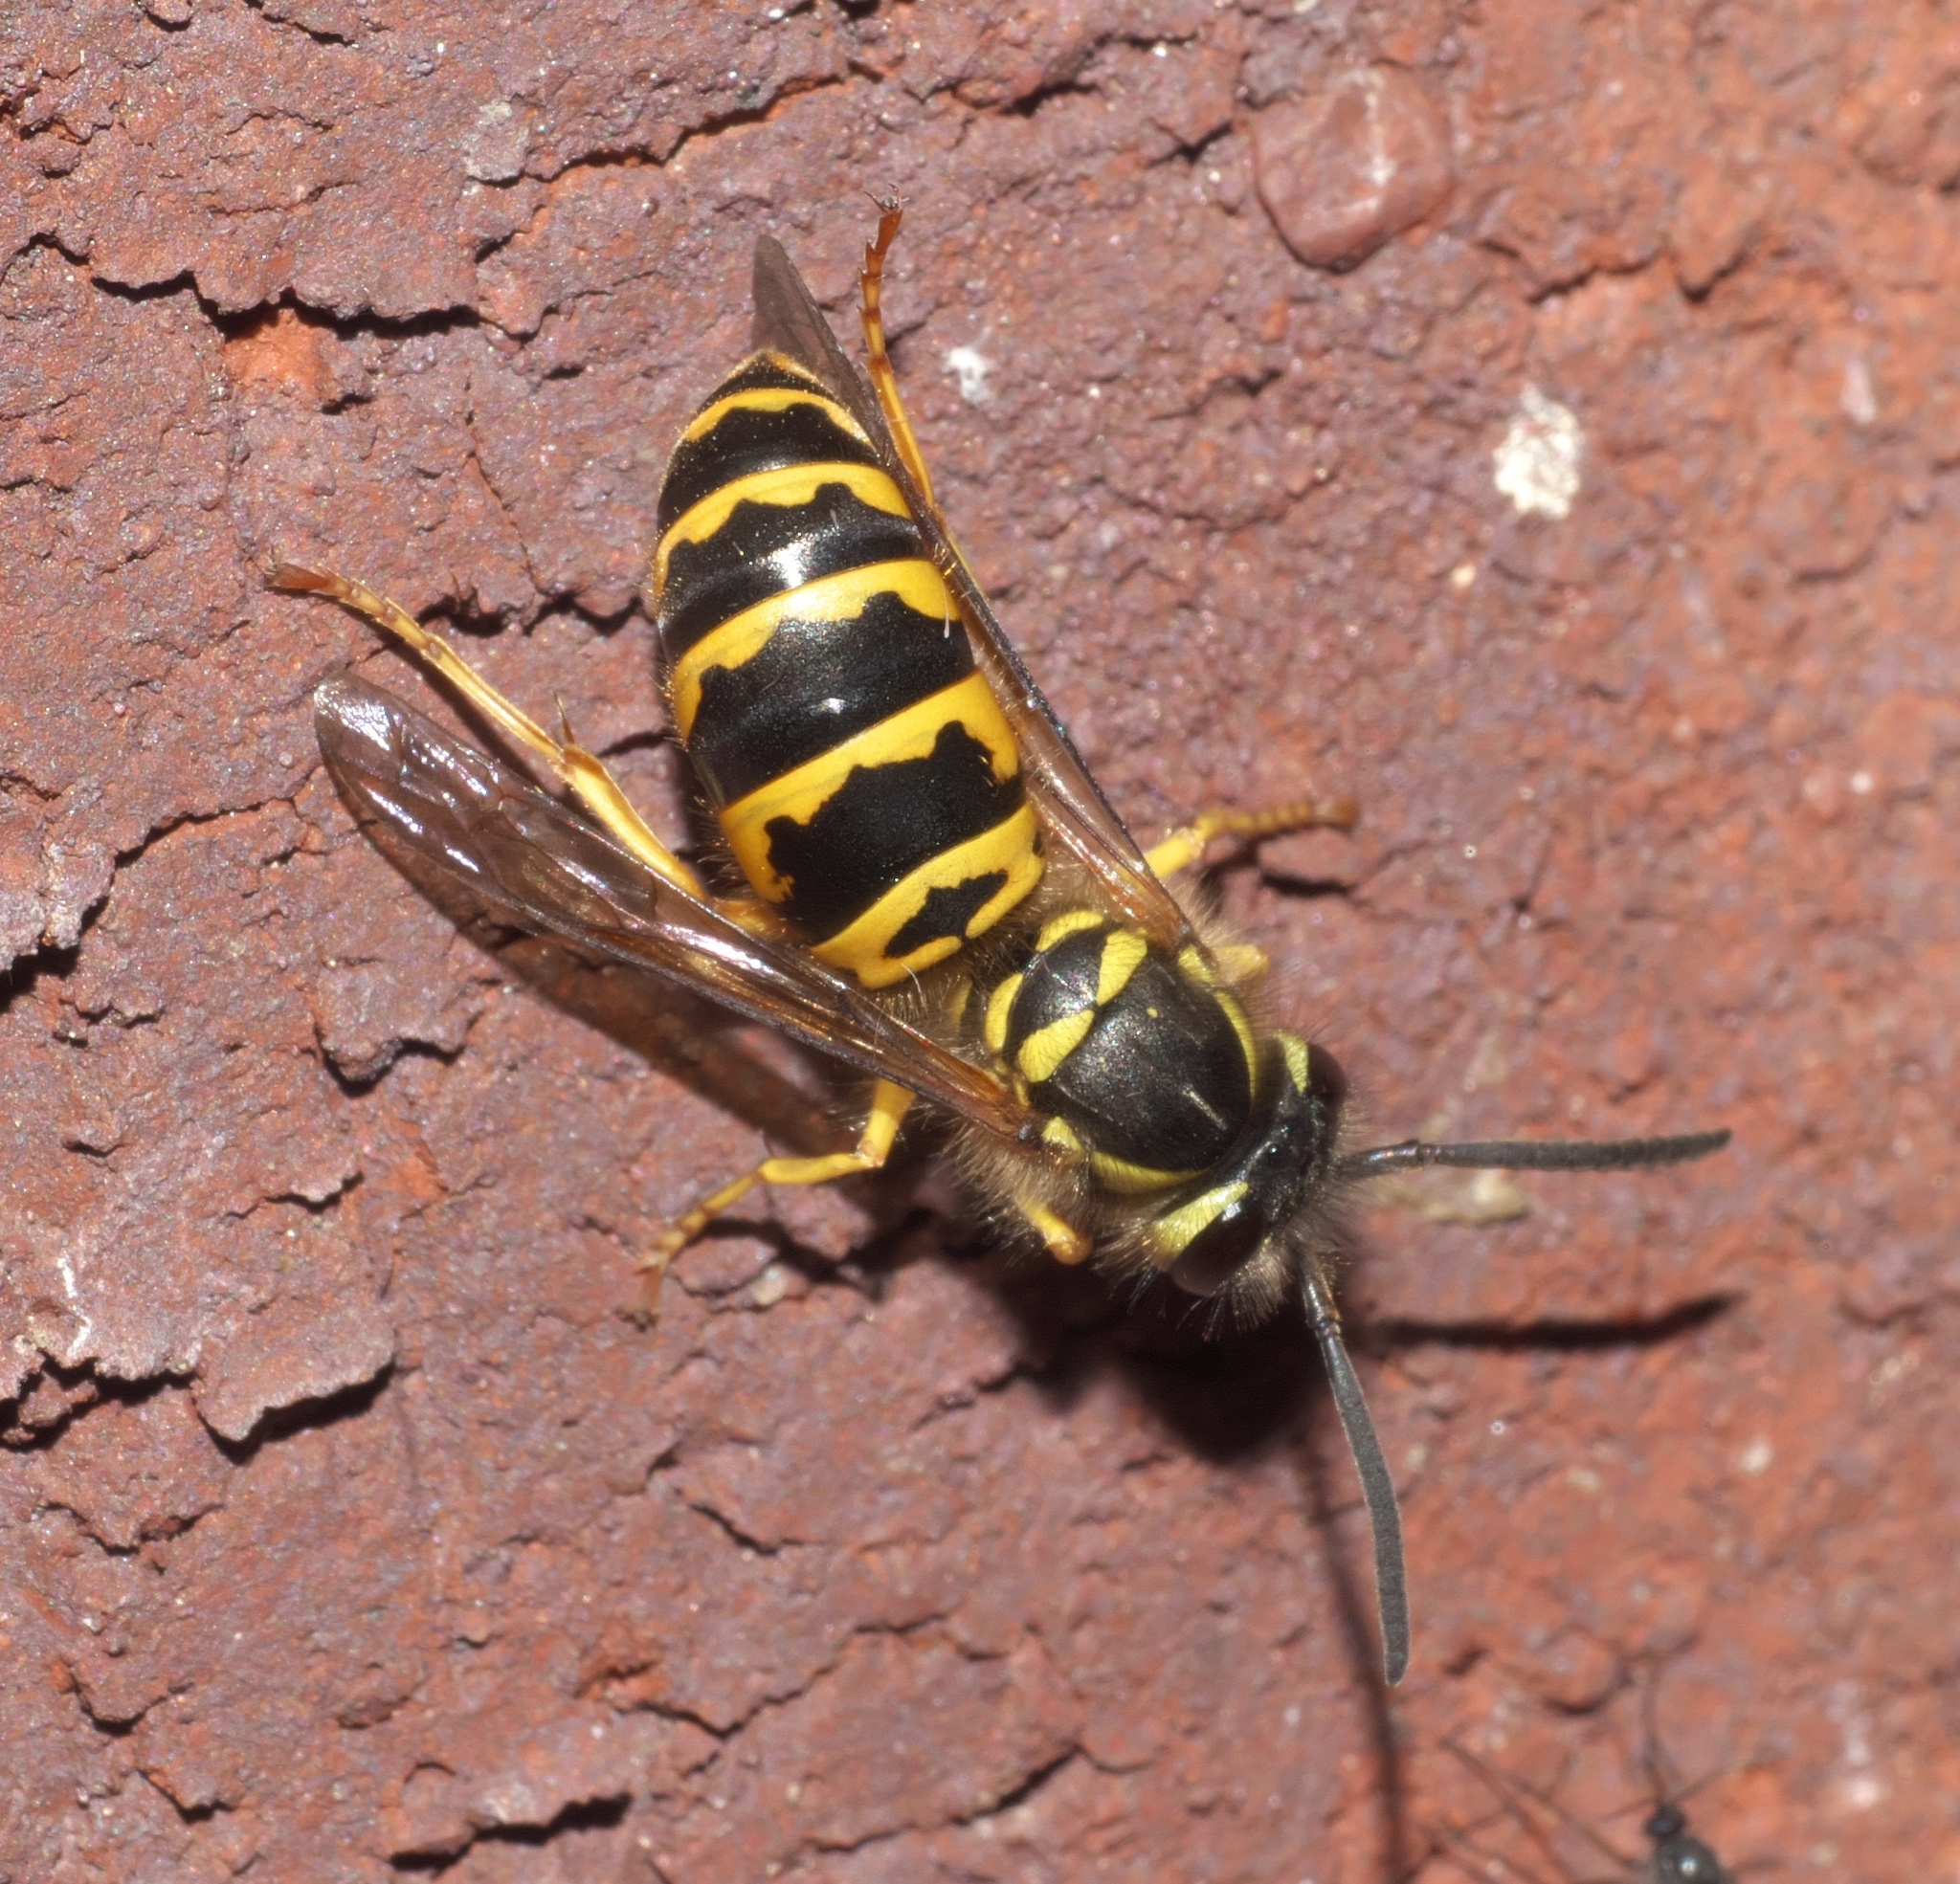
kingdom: Animalia
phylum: Arthropoda
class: Insecta
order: Hymenoptera
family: Vespidae
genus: Vespula
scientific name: Vespula maculifrons
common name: Eastern yellowjacket
